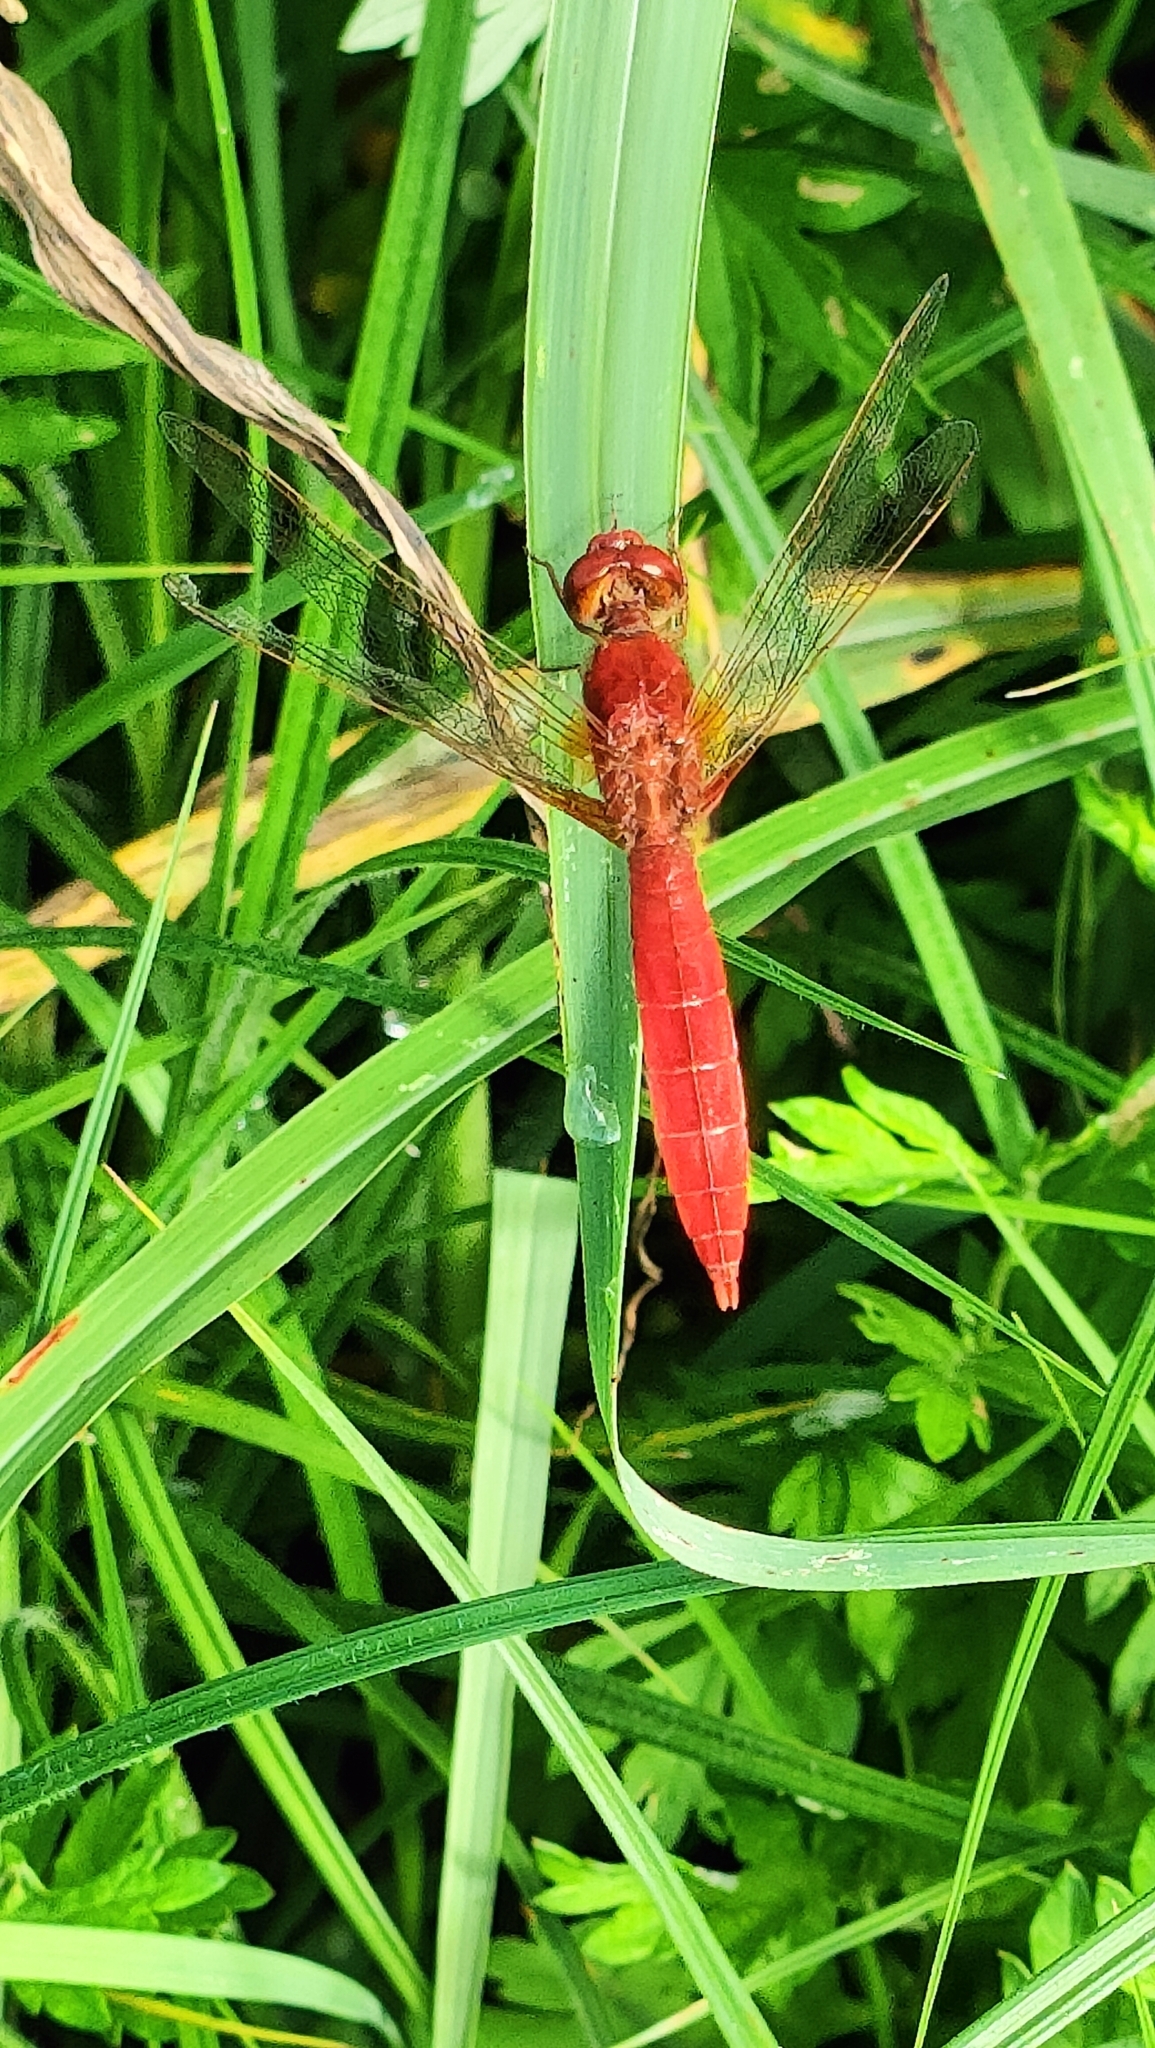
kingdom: Animalia
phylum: Arthropoda
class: Insecta
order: Odonata
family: Libellulidae
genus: Crocothemis
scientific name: Crocothemis erythraea
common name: Scarlet dragonfly
